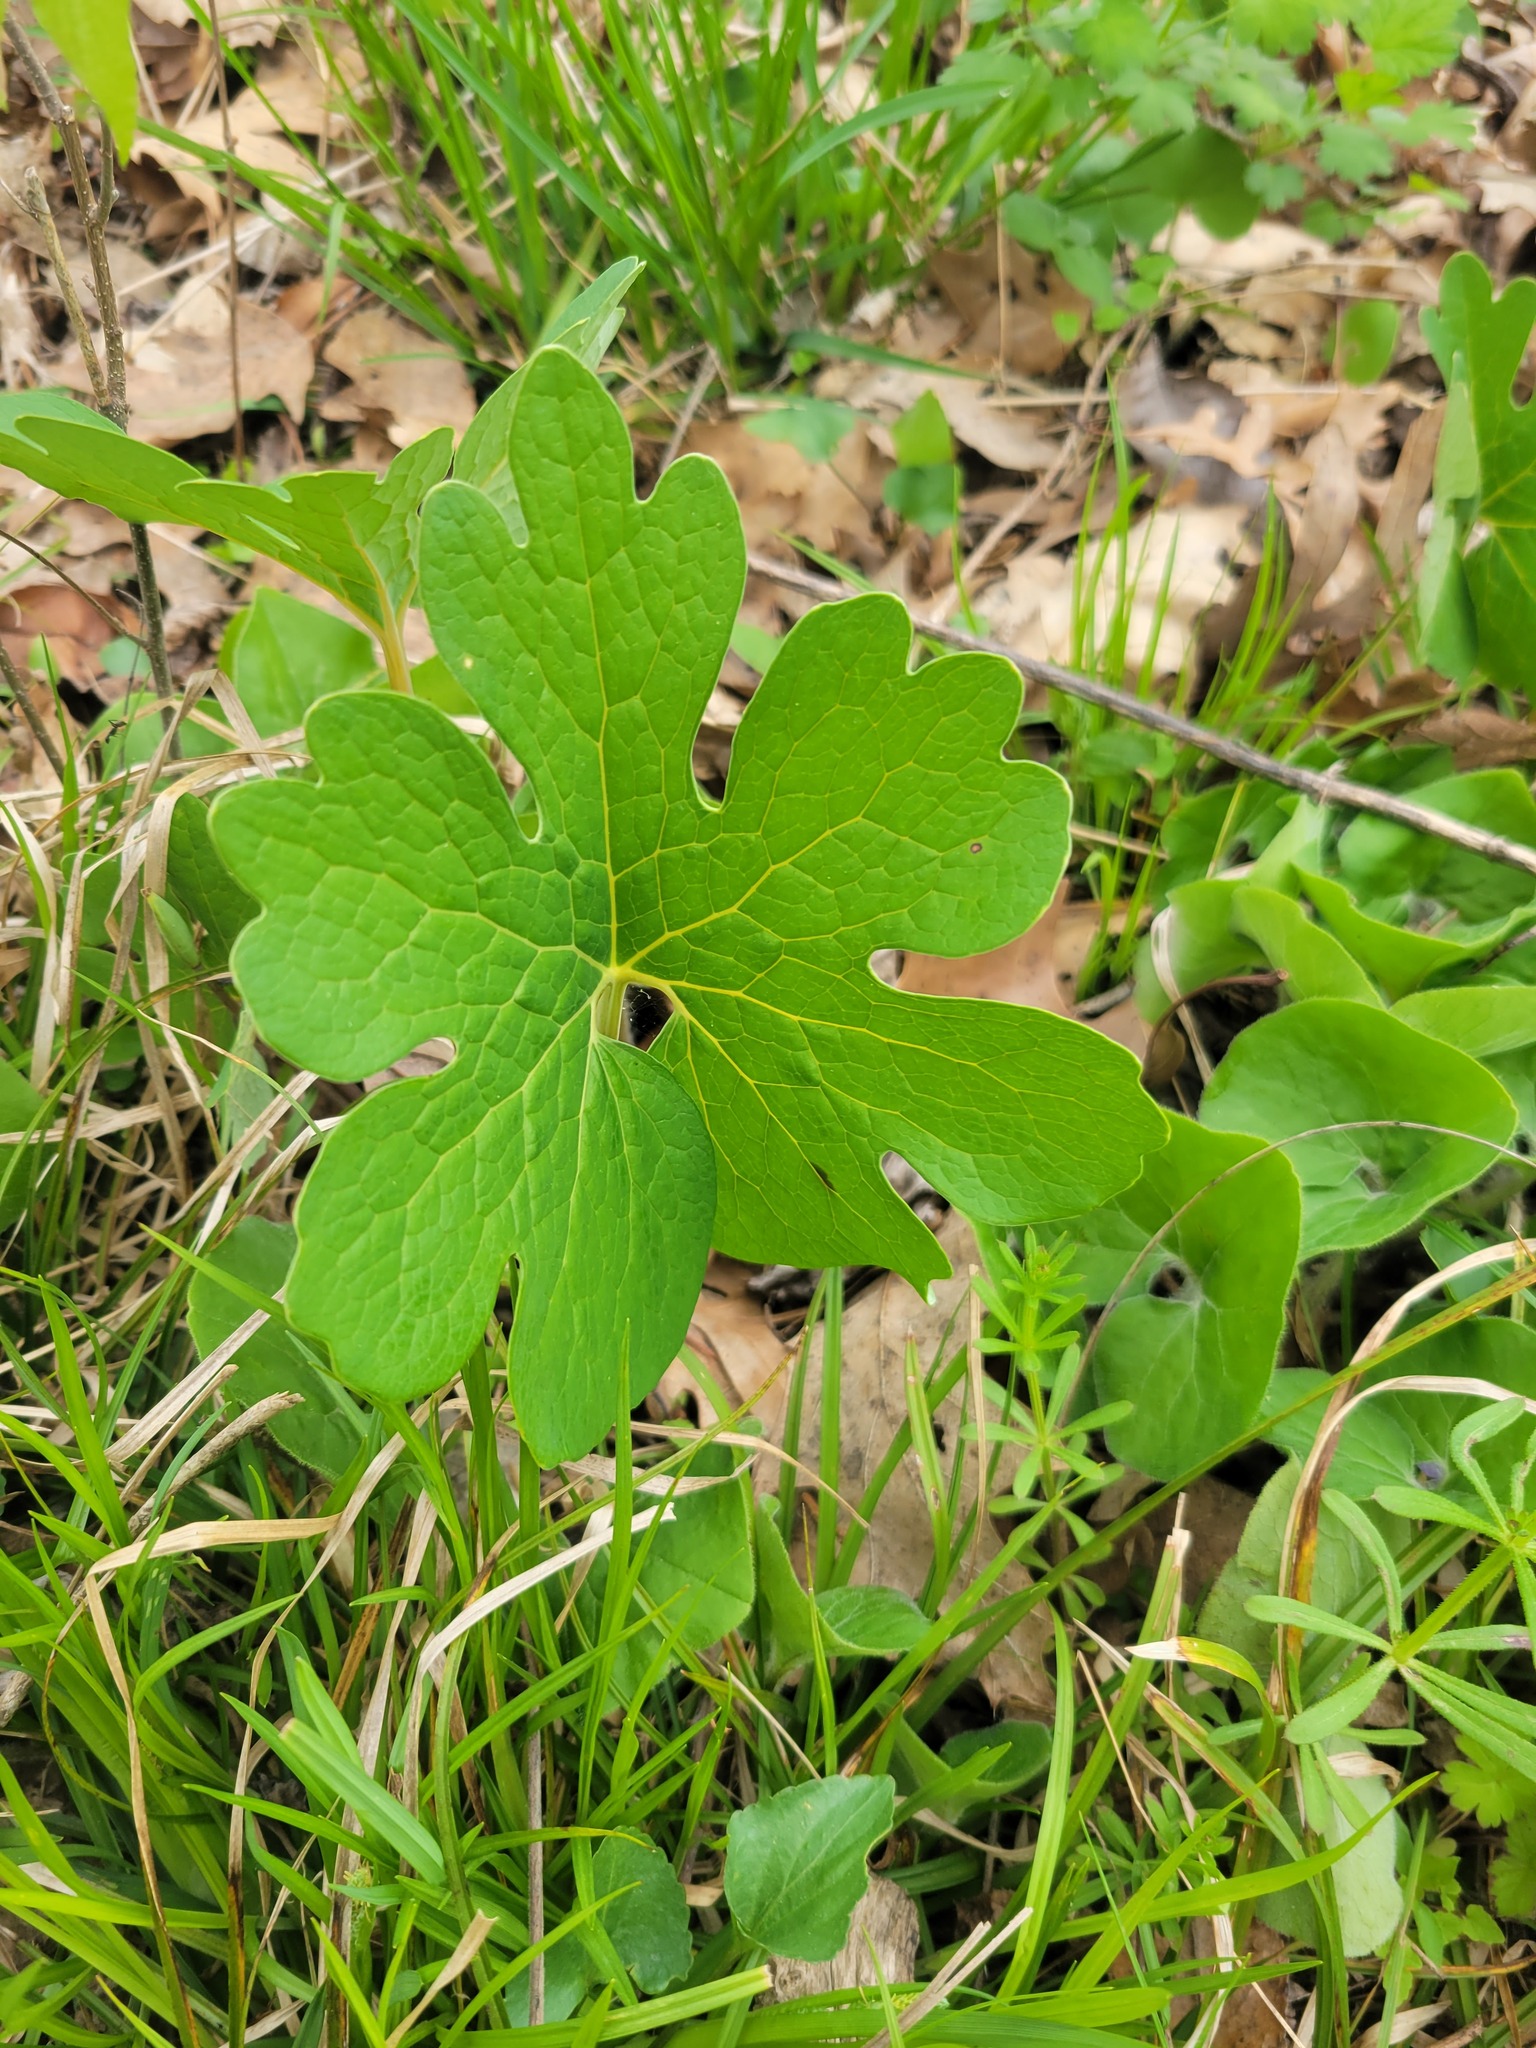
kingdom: Plantae
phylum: Tracheophyta
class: Magnoliopsida
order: Ranunculales
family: Papaveraceae
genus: Sanguinaria
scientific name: Sanguinaria canadensis
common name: Bloodroot
